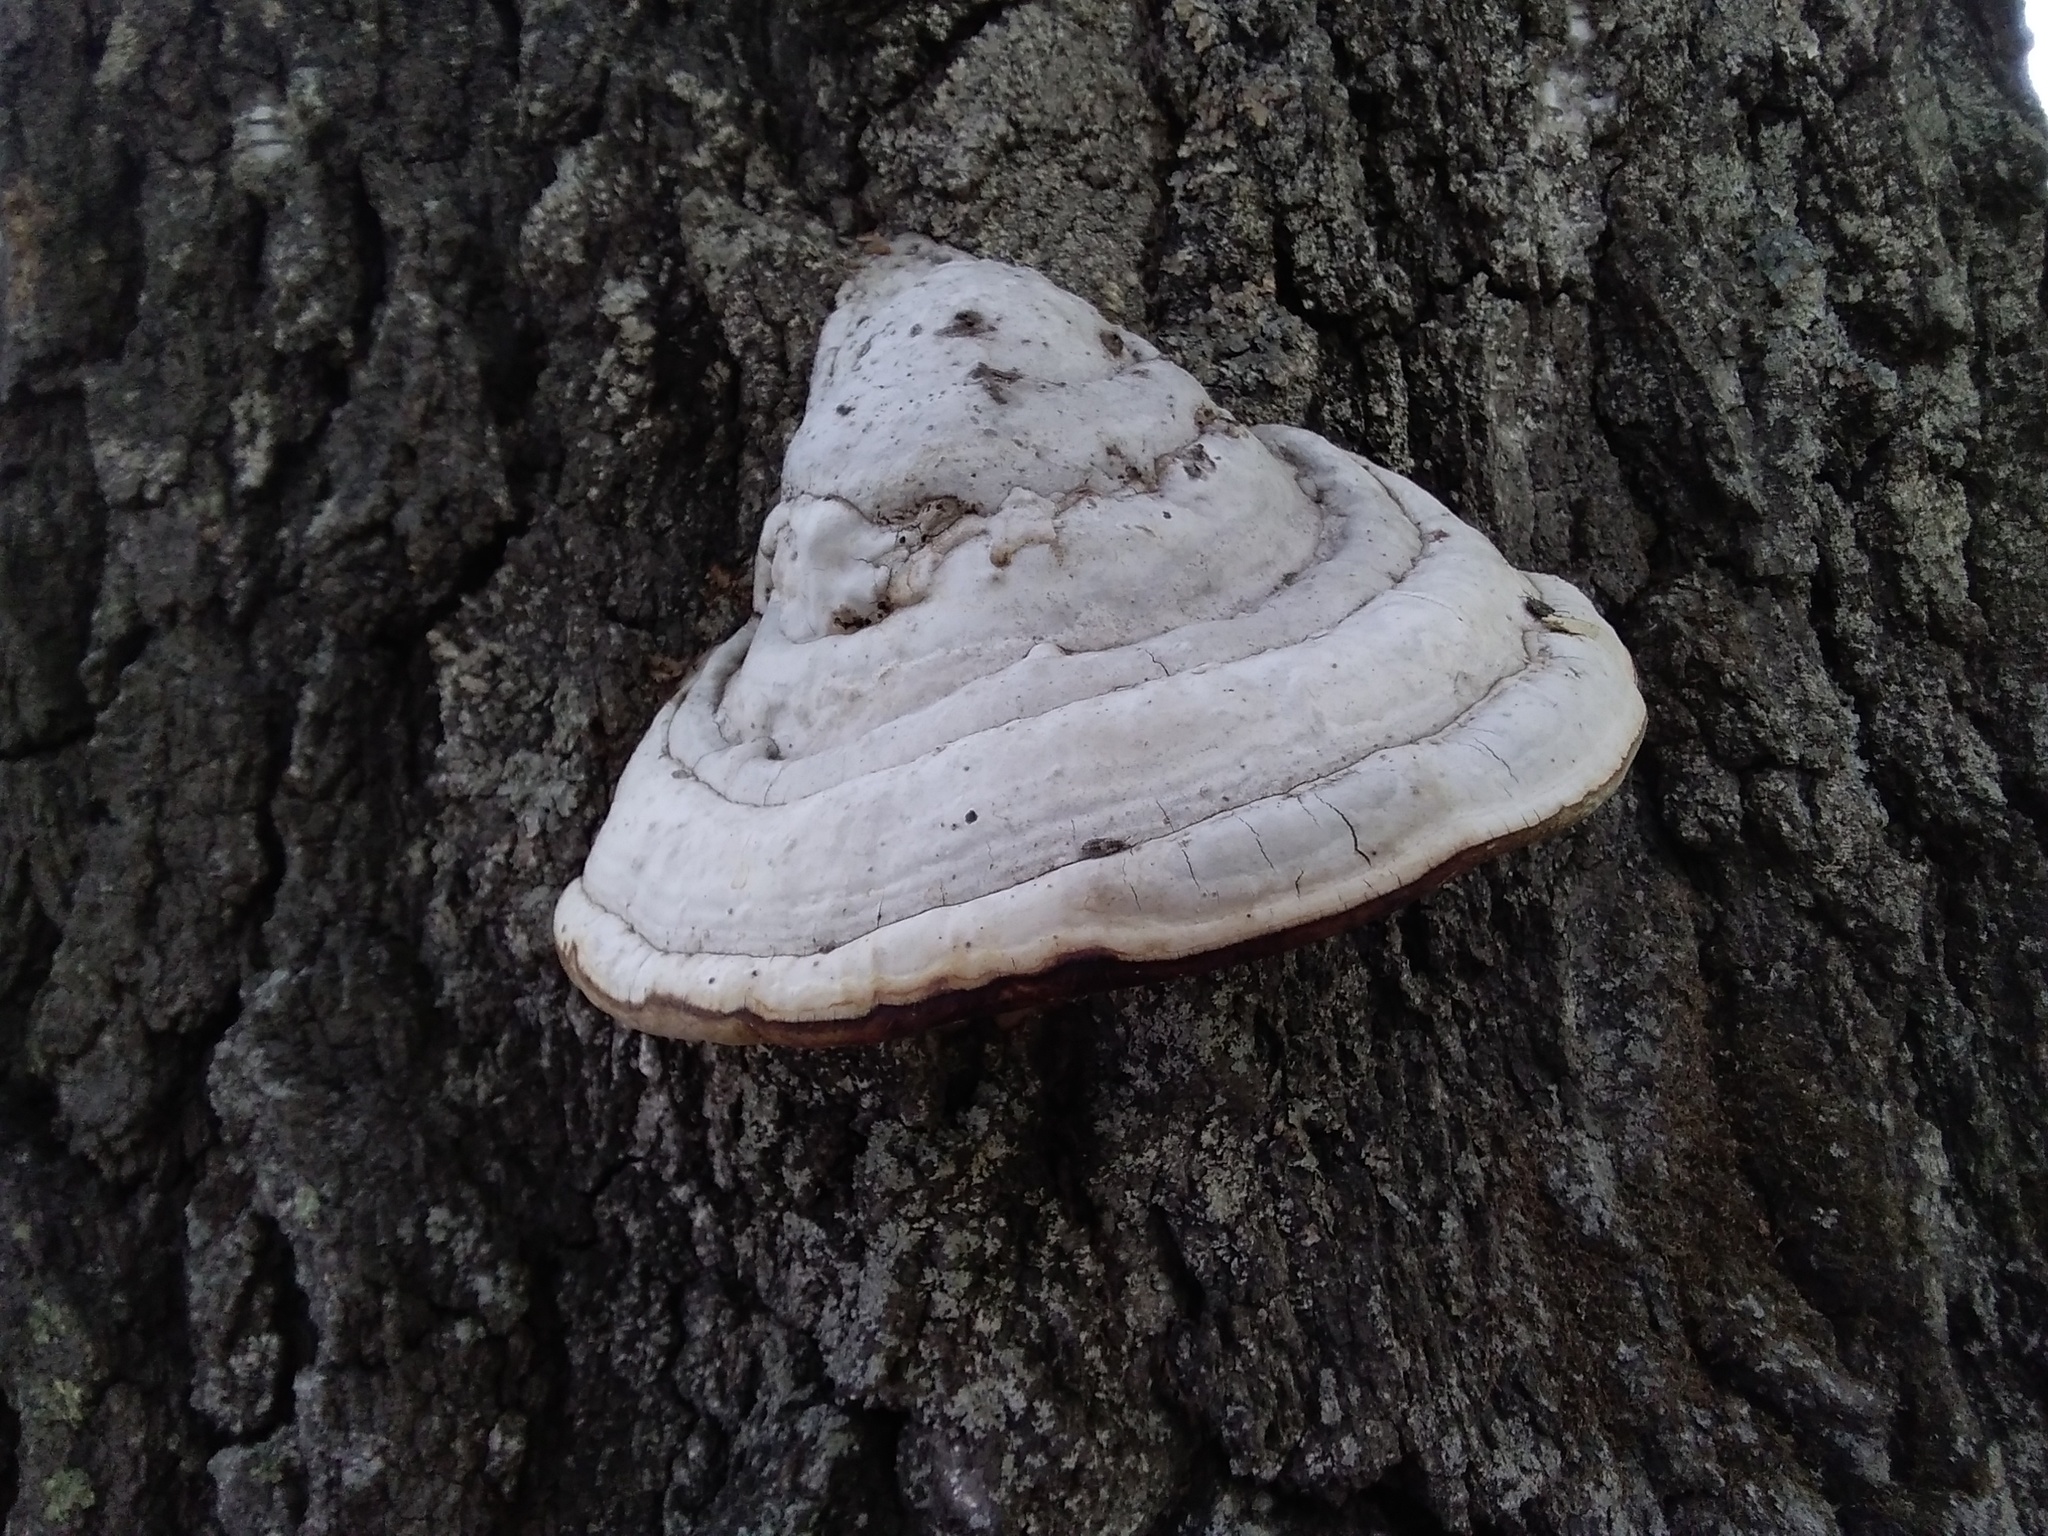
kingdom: Fungi
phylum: Basidiomycota
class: Agaricomycetes
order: Polyporales
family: Polyporaceae
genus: Fomes
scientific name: Fomes fomentarius
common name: Hoof fungus
